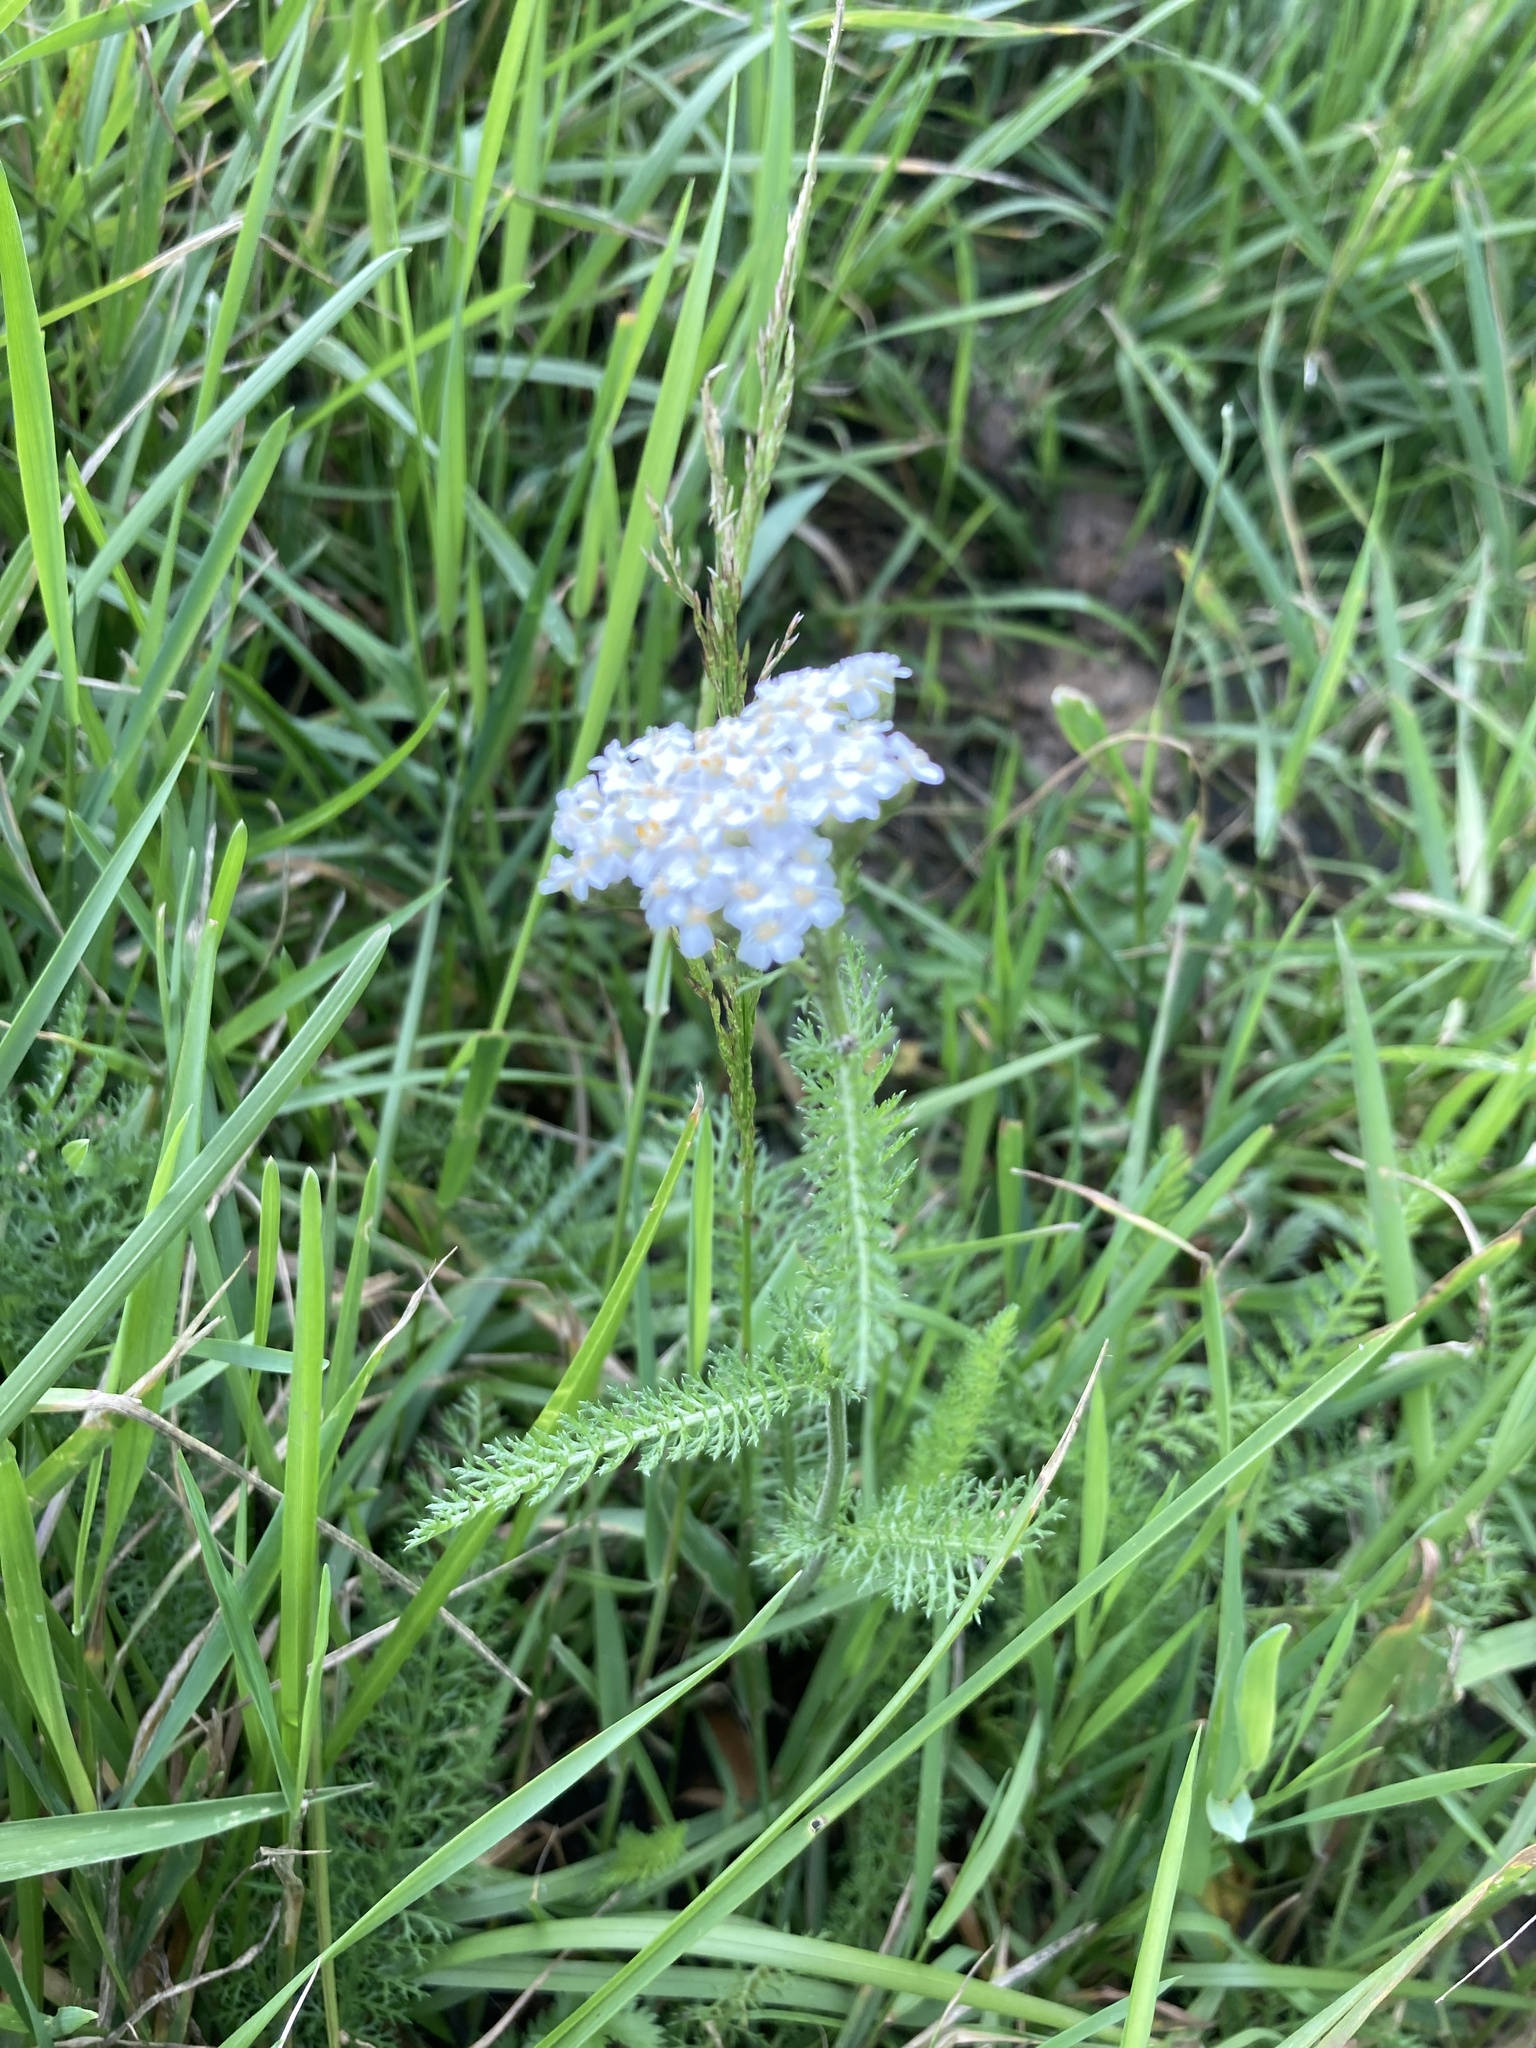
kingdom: Plantae
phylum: Tracheophyta
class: Magnoliopsida
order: Asterales
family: Asteraceae
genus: Achillea
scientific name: Achillea millefolium
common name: Yarrow
